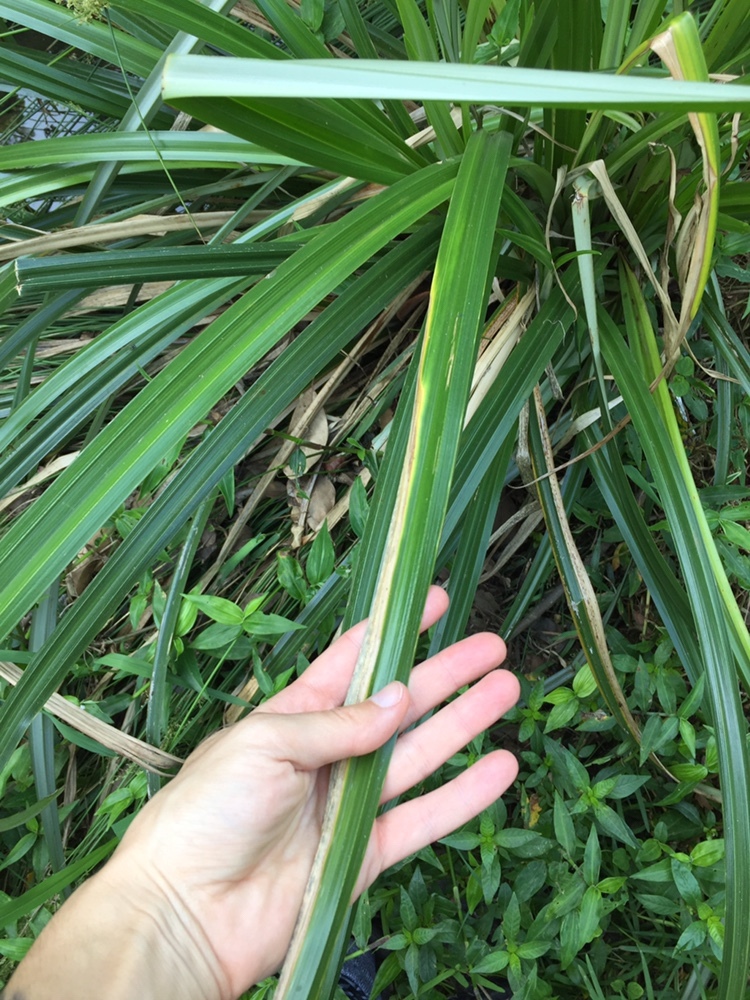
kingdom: Plantae
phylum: Tracheophyta
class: Liliopsida
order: Poales
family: Cyperaceae
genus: Cyperus
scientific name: Cyperus dives
